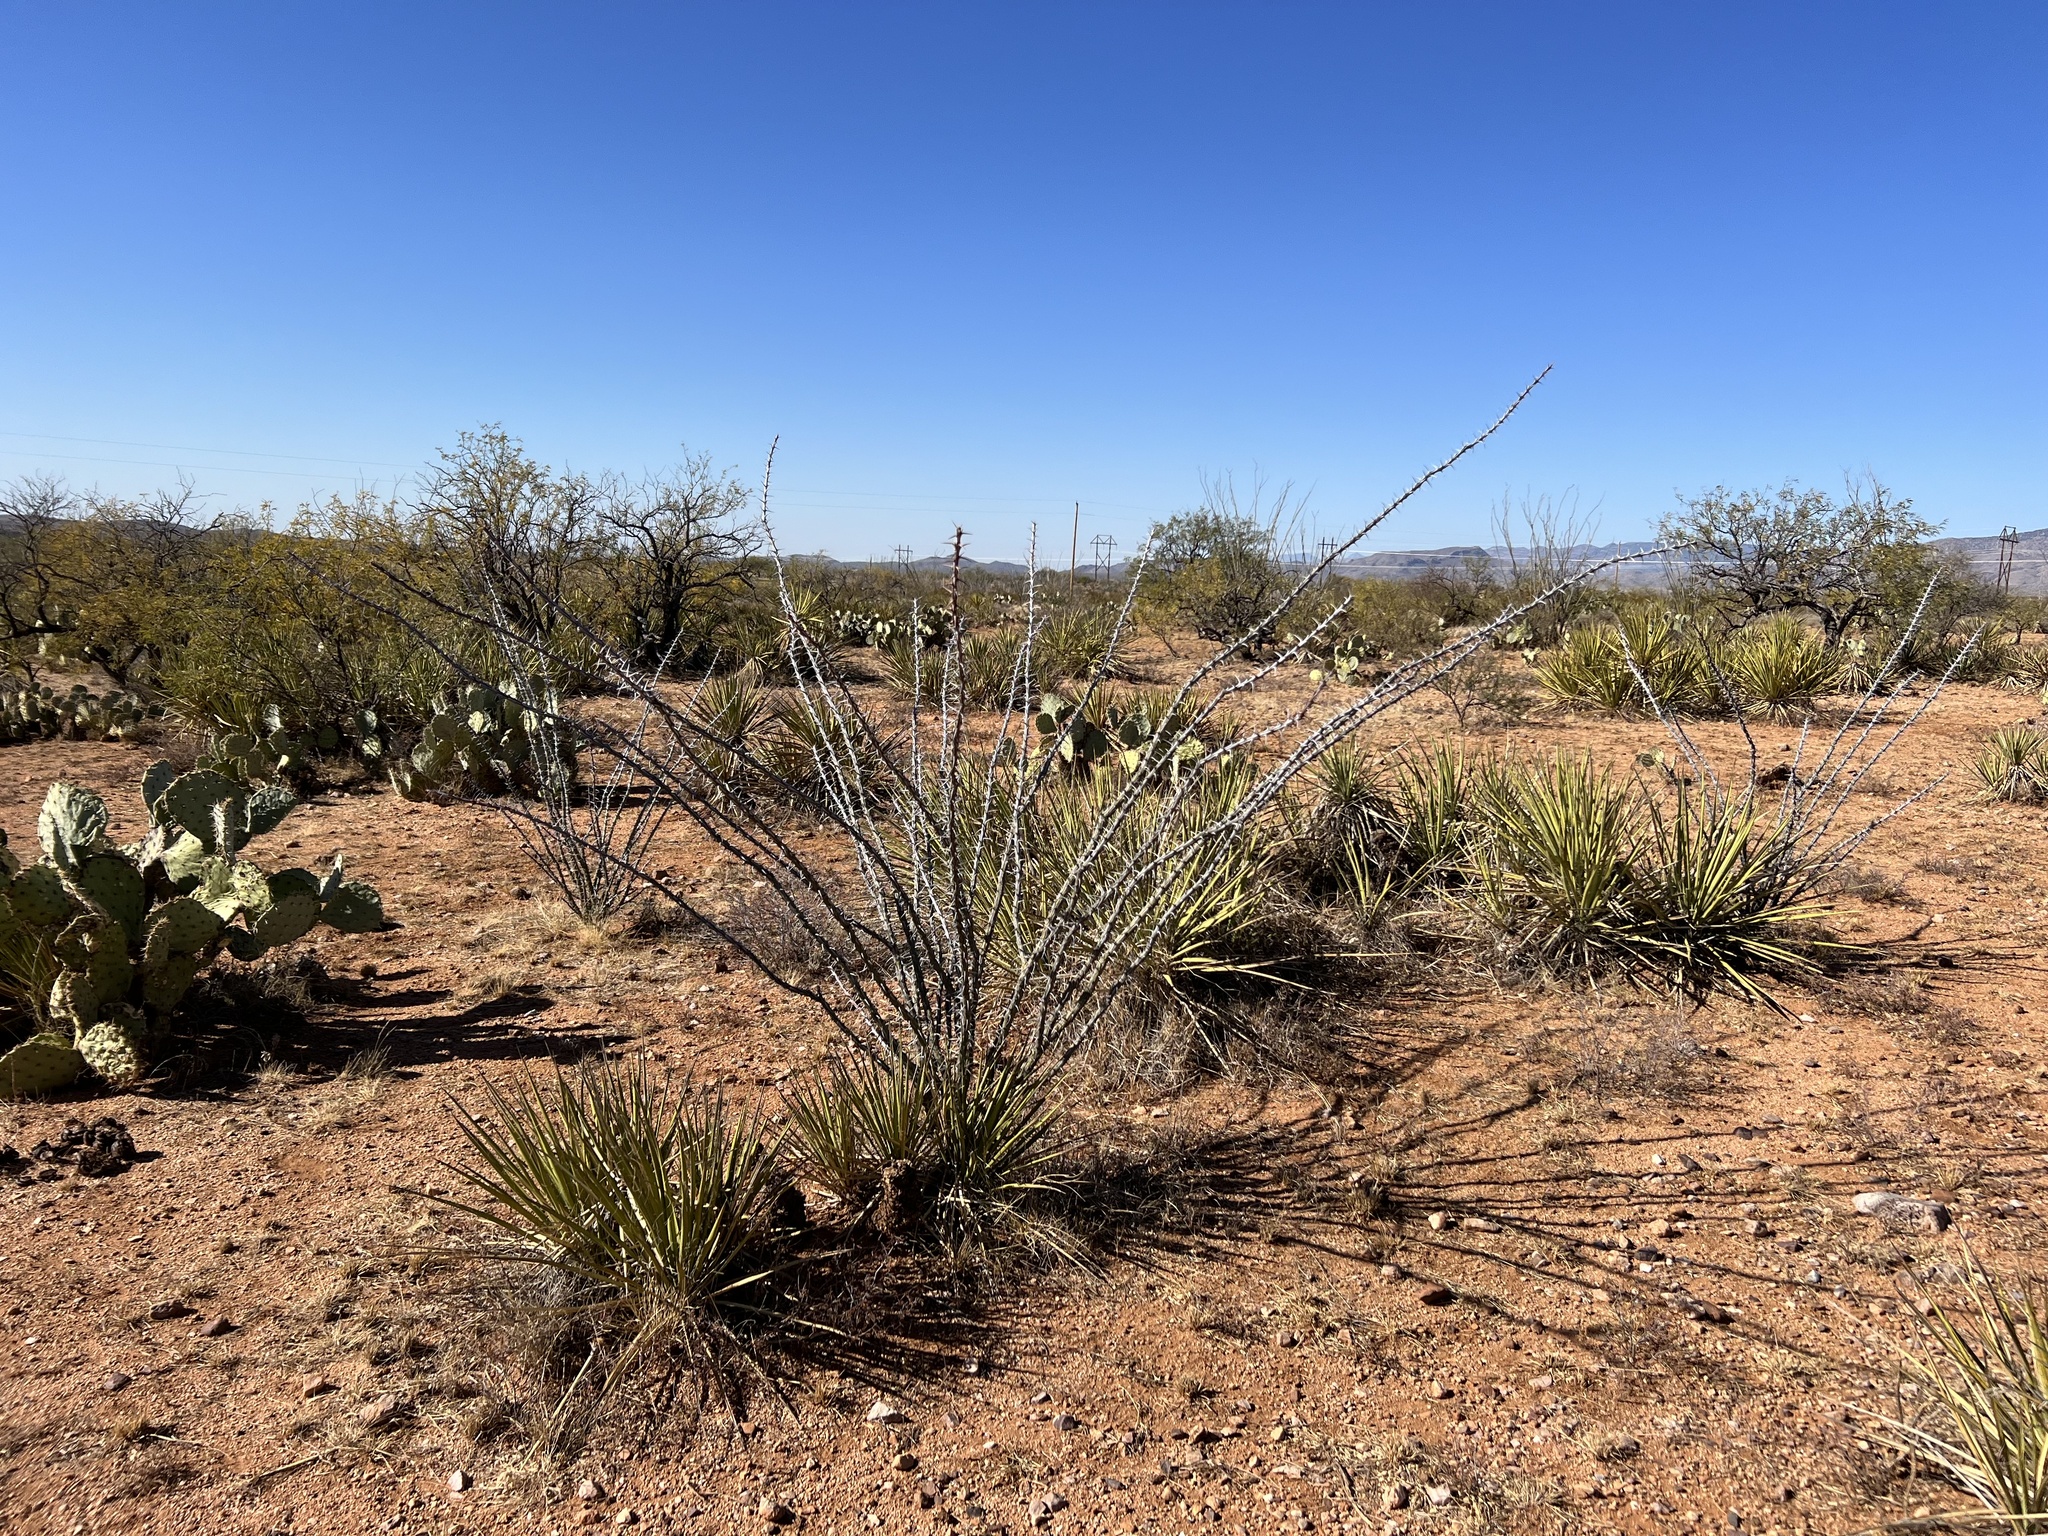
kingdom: Plantae
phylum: Tracheophyta
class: Magnoliopsida
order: Ericales
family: Fouquieriaceae
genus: Fouquieria
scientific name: Fouquieria splendens
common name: Vine-cactus
